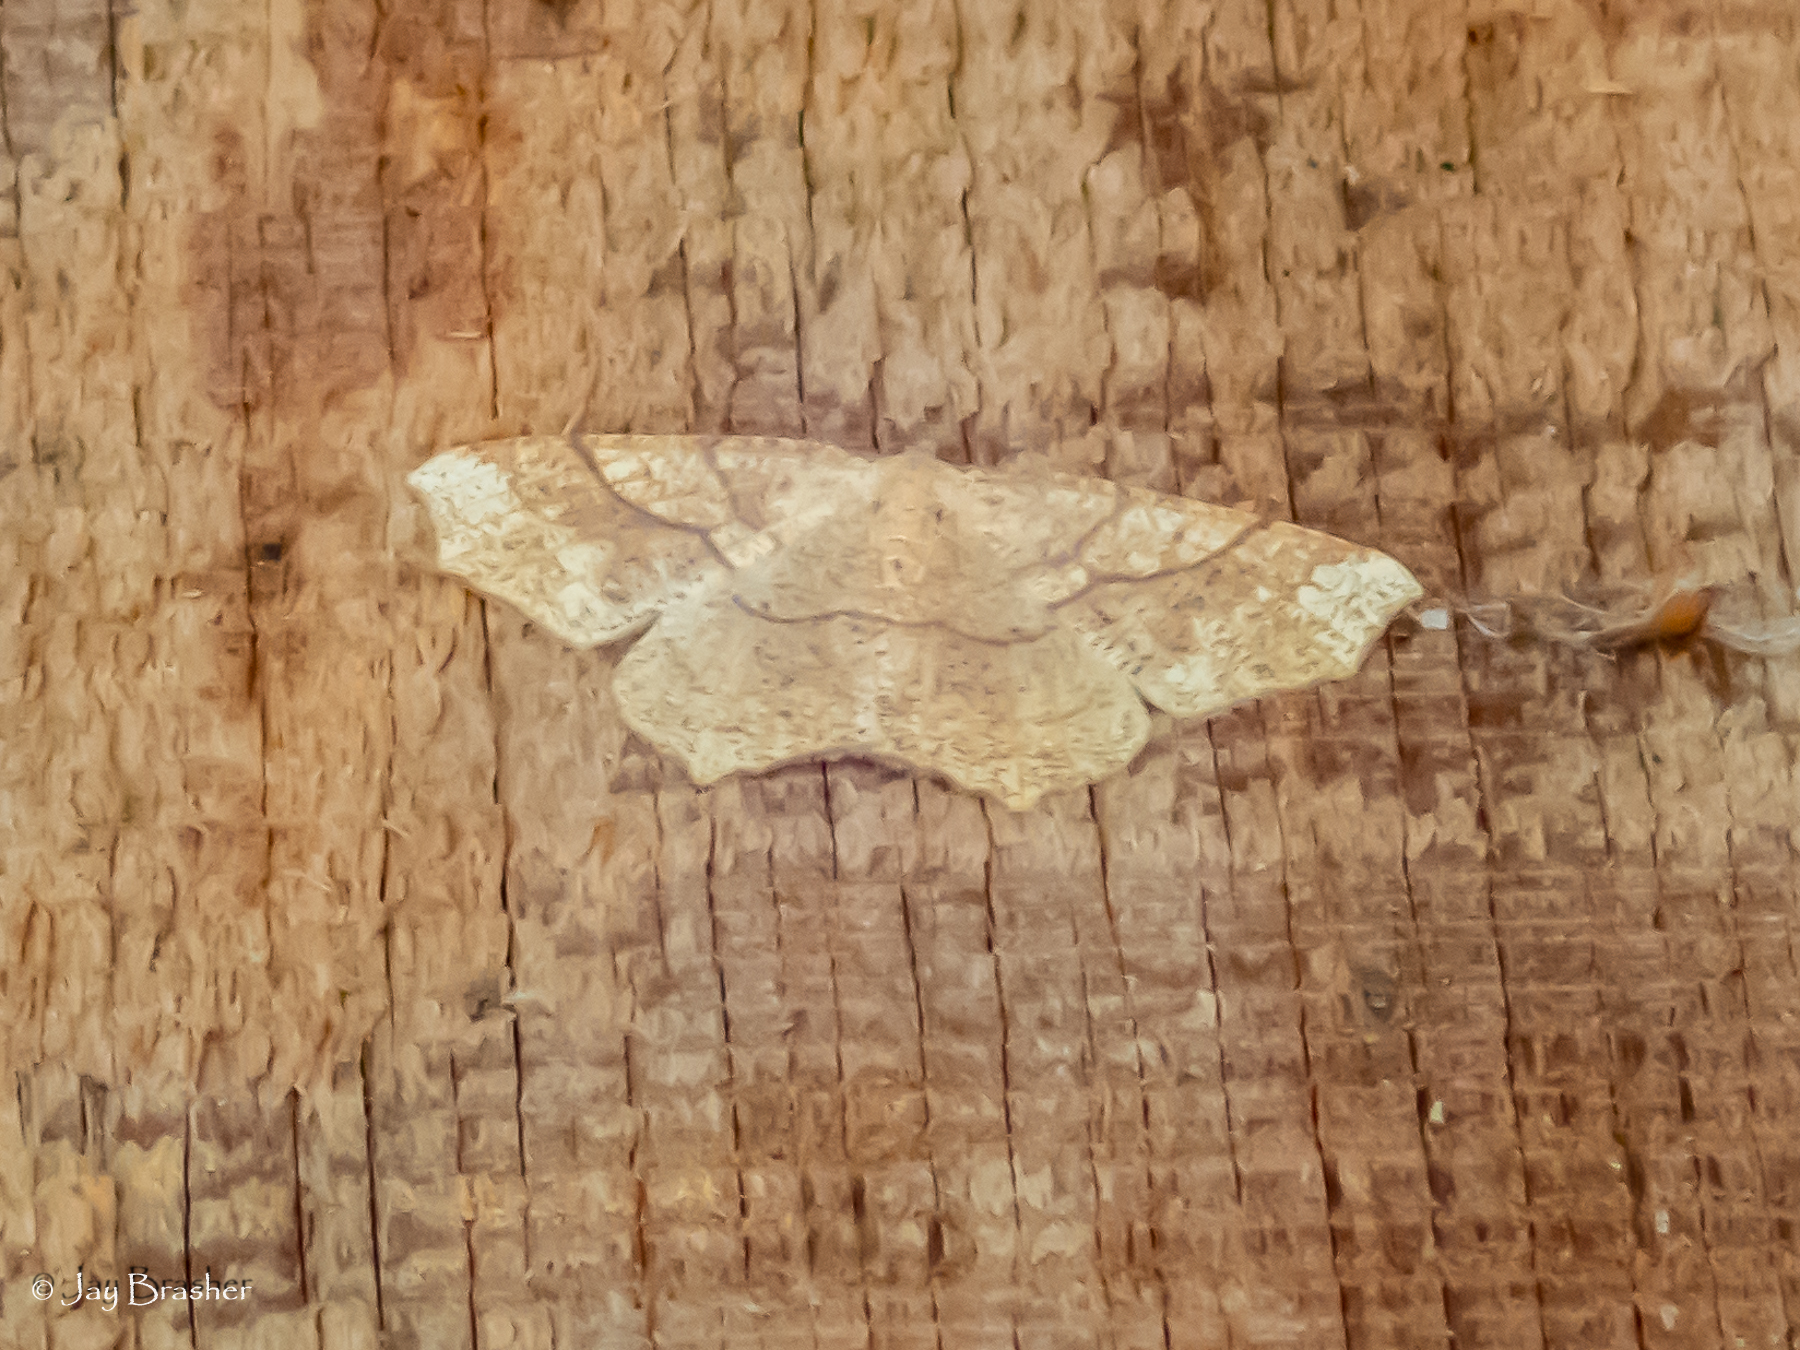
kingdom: Animalia
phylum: Arthropoda
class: Insecta
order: Lepidoptera
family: Geometridae
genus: Besma
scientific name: Besma quercivoraria
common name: Oak besma
